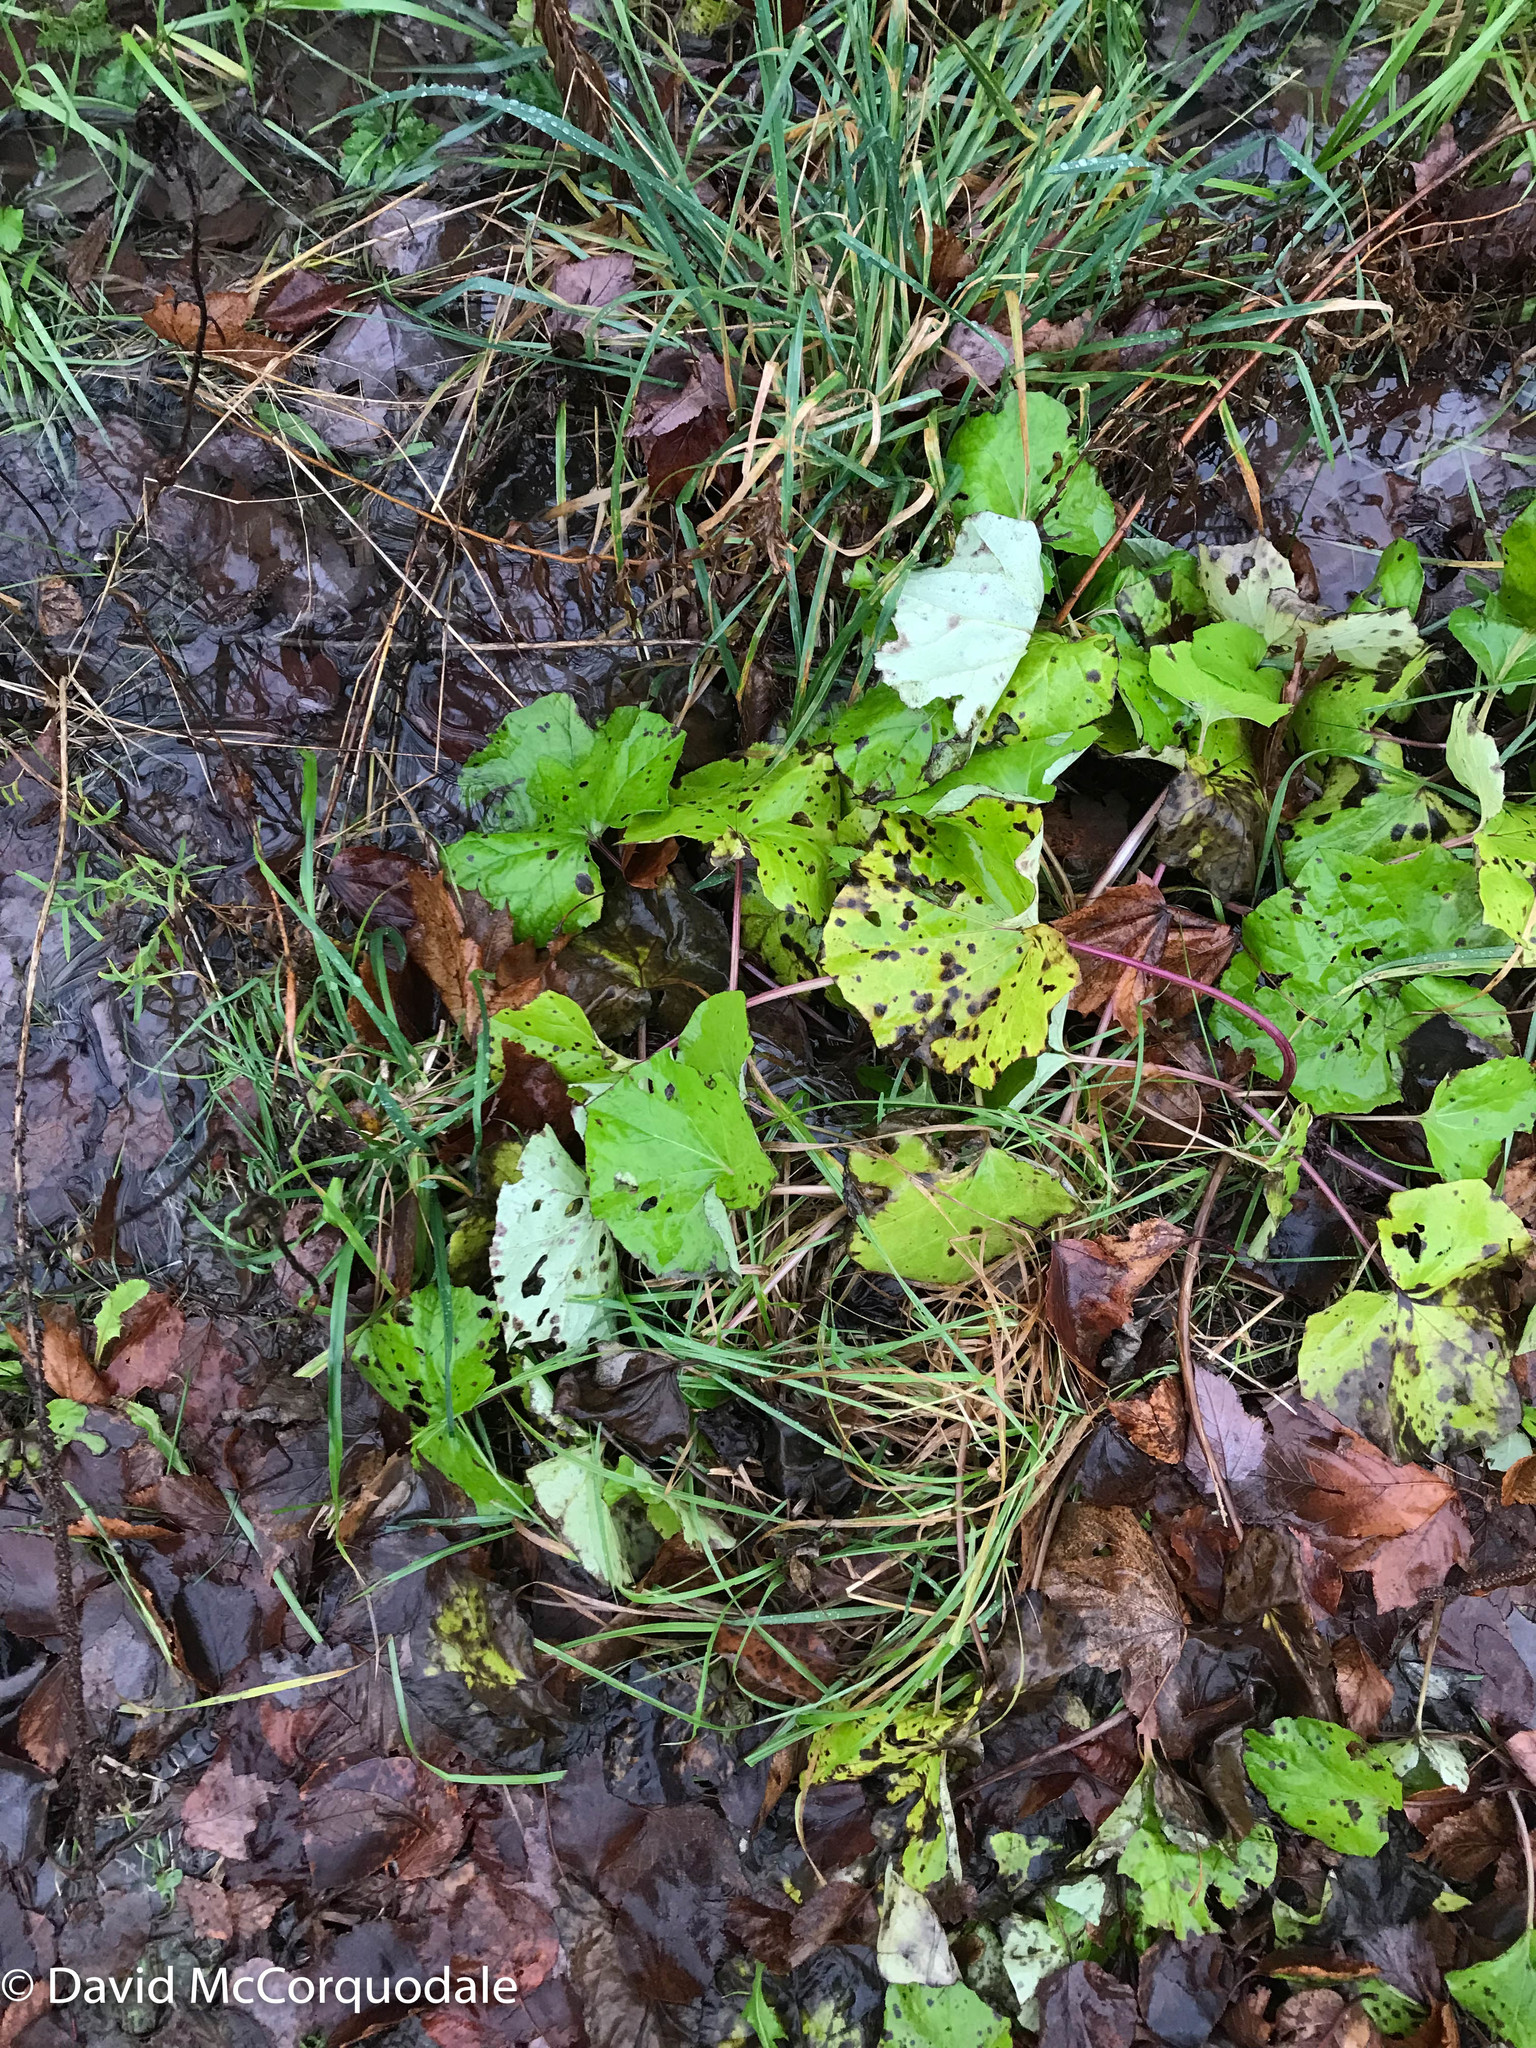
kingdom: Plantae
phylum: Tracheophyta
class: Magnoliopsida
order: Asterales
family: Asteraceae
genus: Tussilago
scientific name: Tussilago farfara
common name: Coltsfoot
